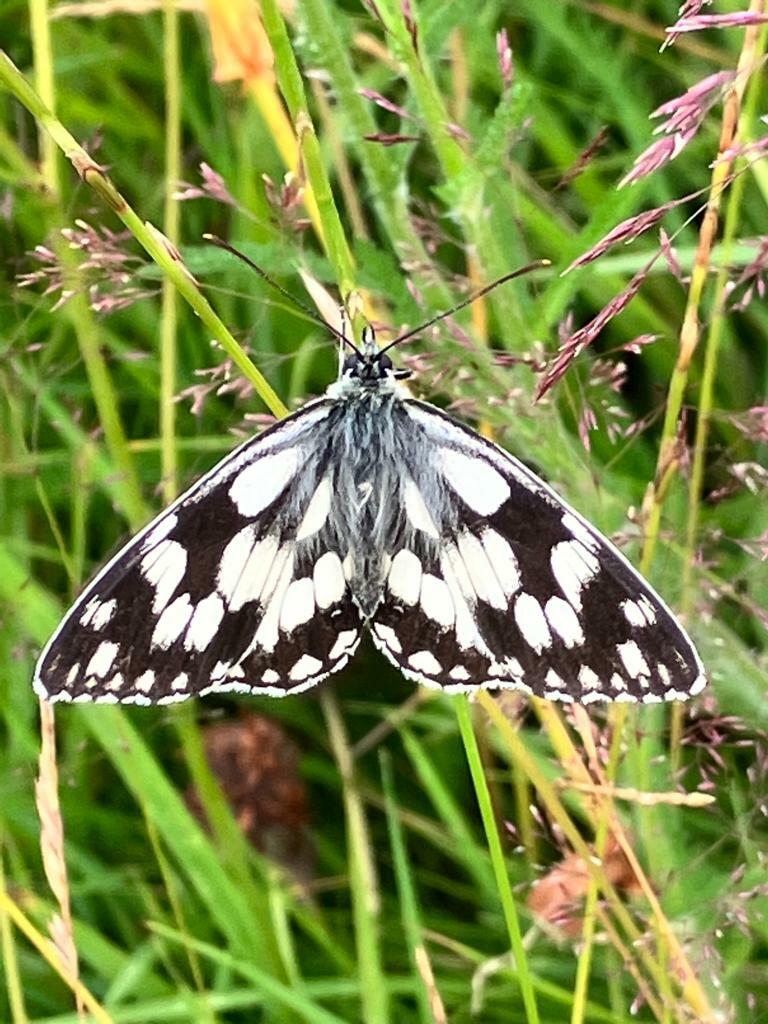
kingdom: Animalia
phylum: Arthropoda
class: Insecta
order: Lepidoptera
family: Nymphalidae
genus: Melanargia
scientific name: Melanargia galathea
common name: Marbled white
